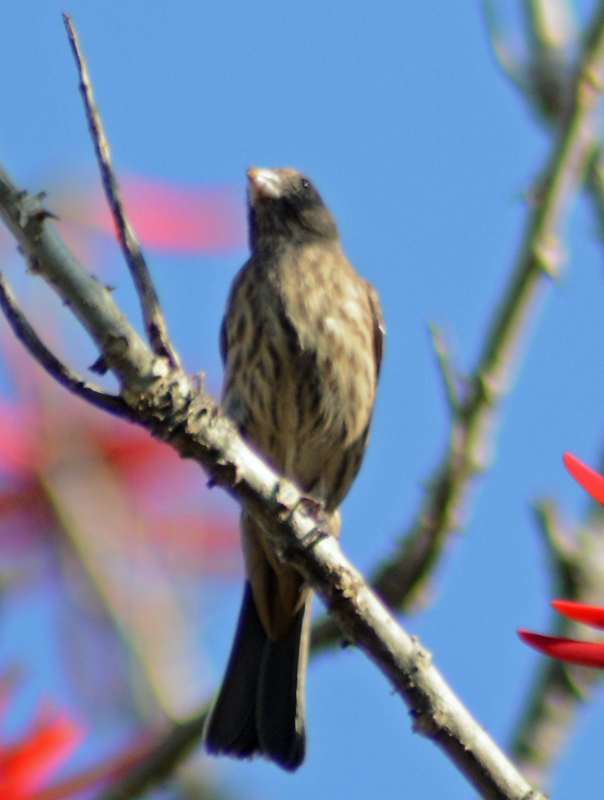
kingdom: Animalia
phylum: Chordata
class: Aves
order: Passeriformes
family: Fringillidae
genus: Haemorhous
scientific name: Haemorhous mexicanus
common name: House finch
